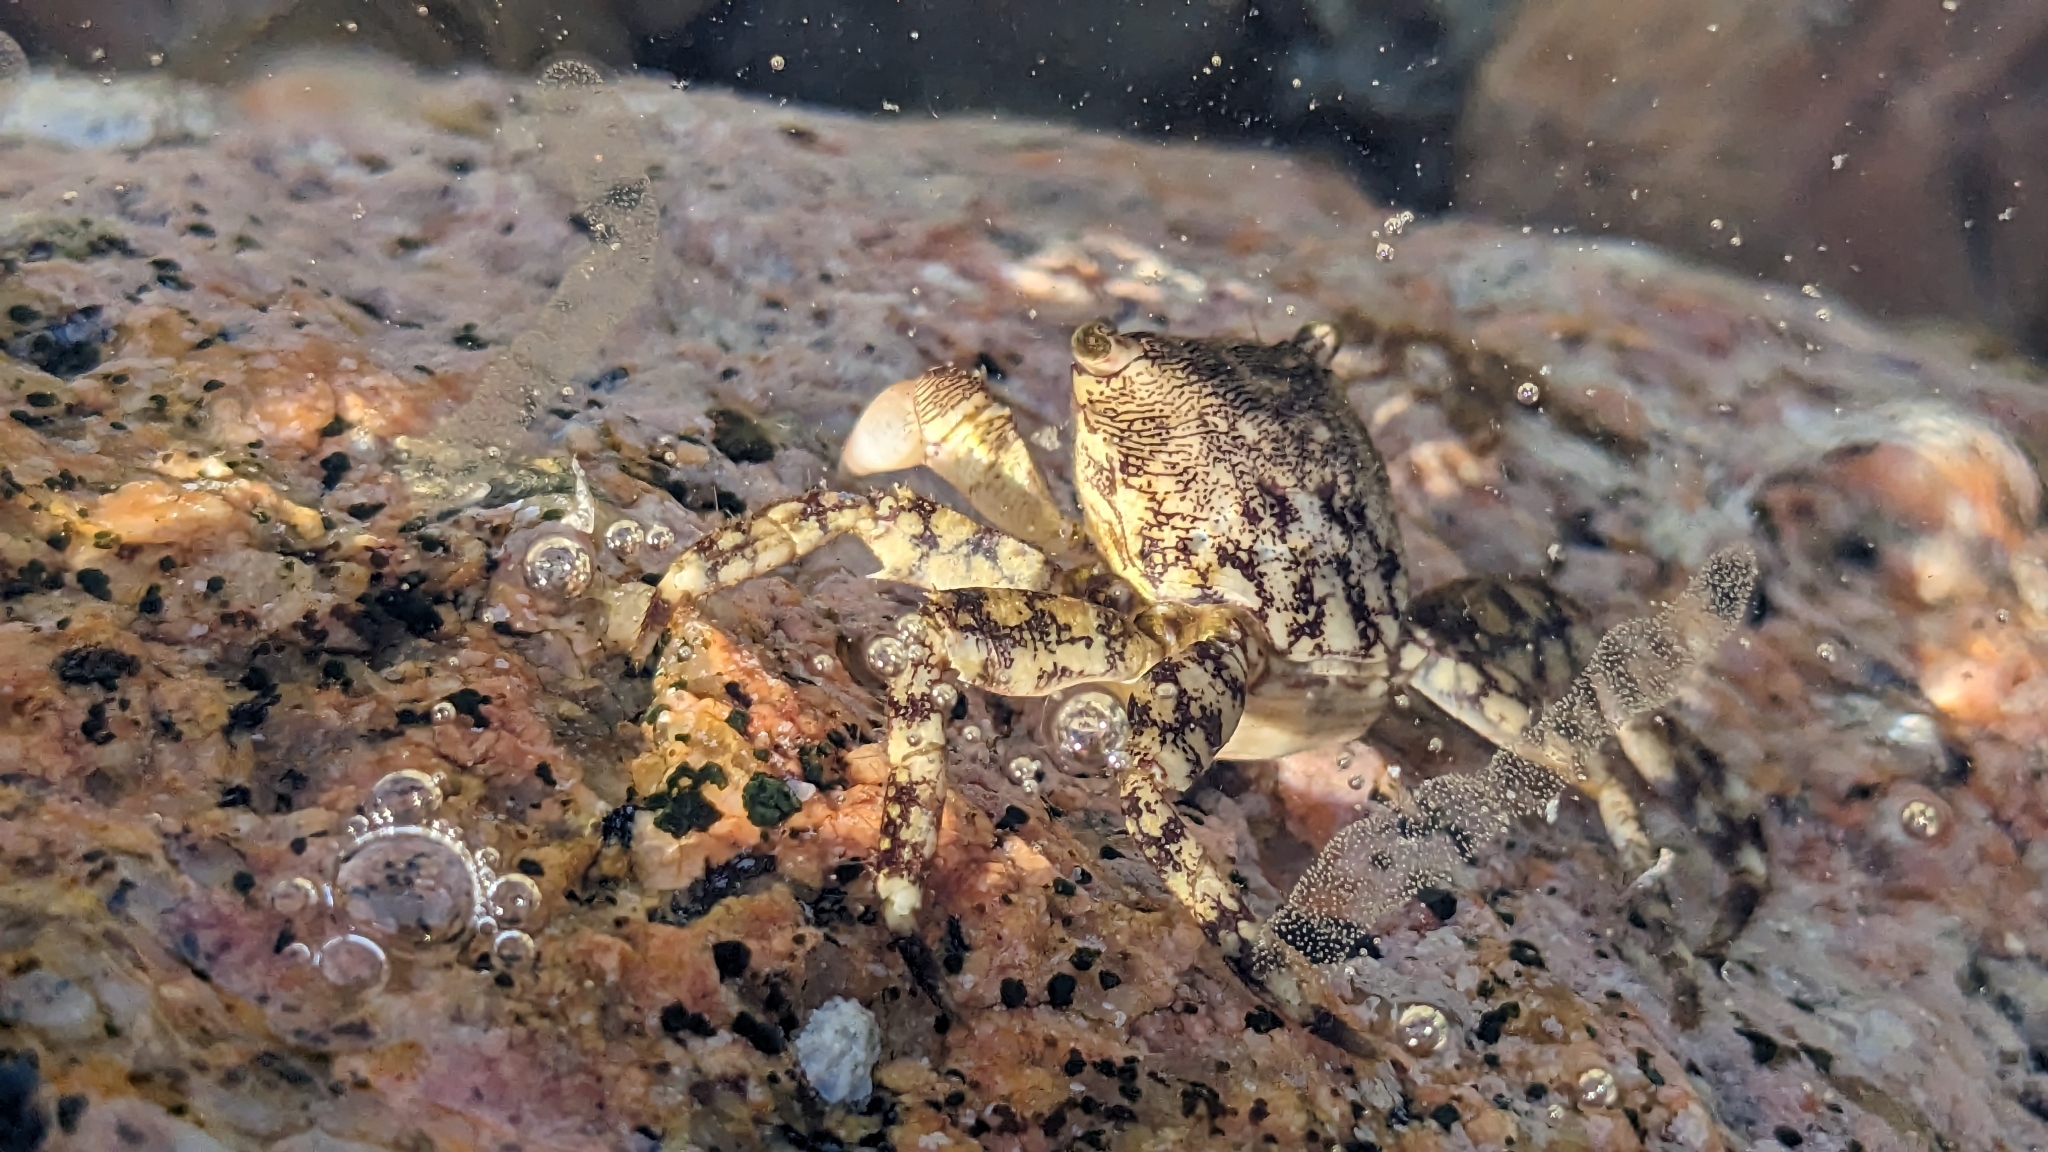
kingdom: Animalia
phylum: Arthropoda
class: Malacostraca
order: Decapoda
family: Grapsidae
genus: Pachygrapsus
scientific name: Pachygrapsus marmoratus
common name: Marbled rock crab
